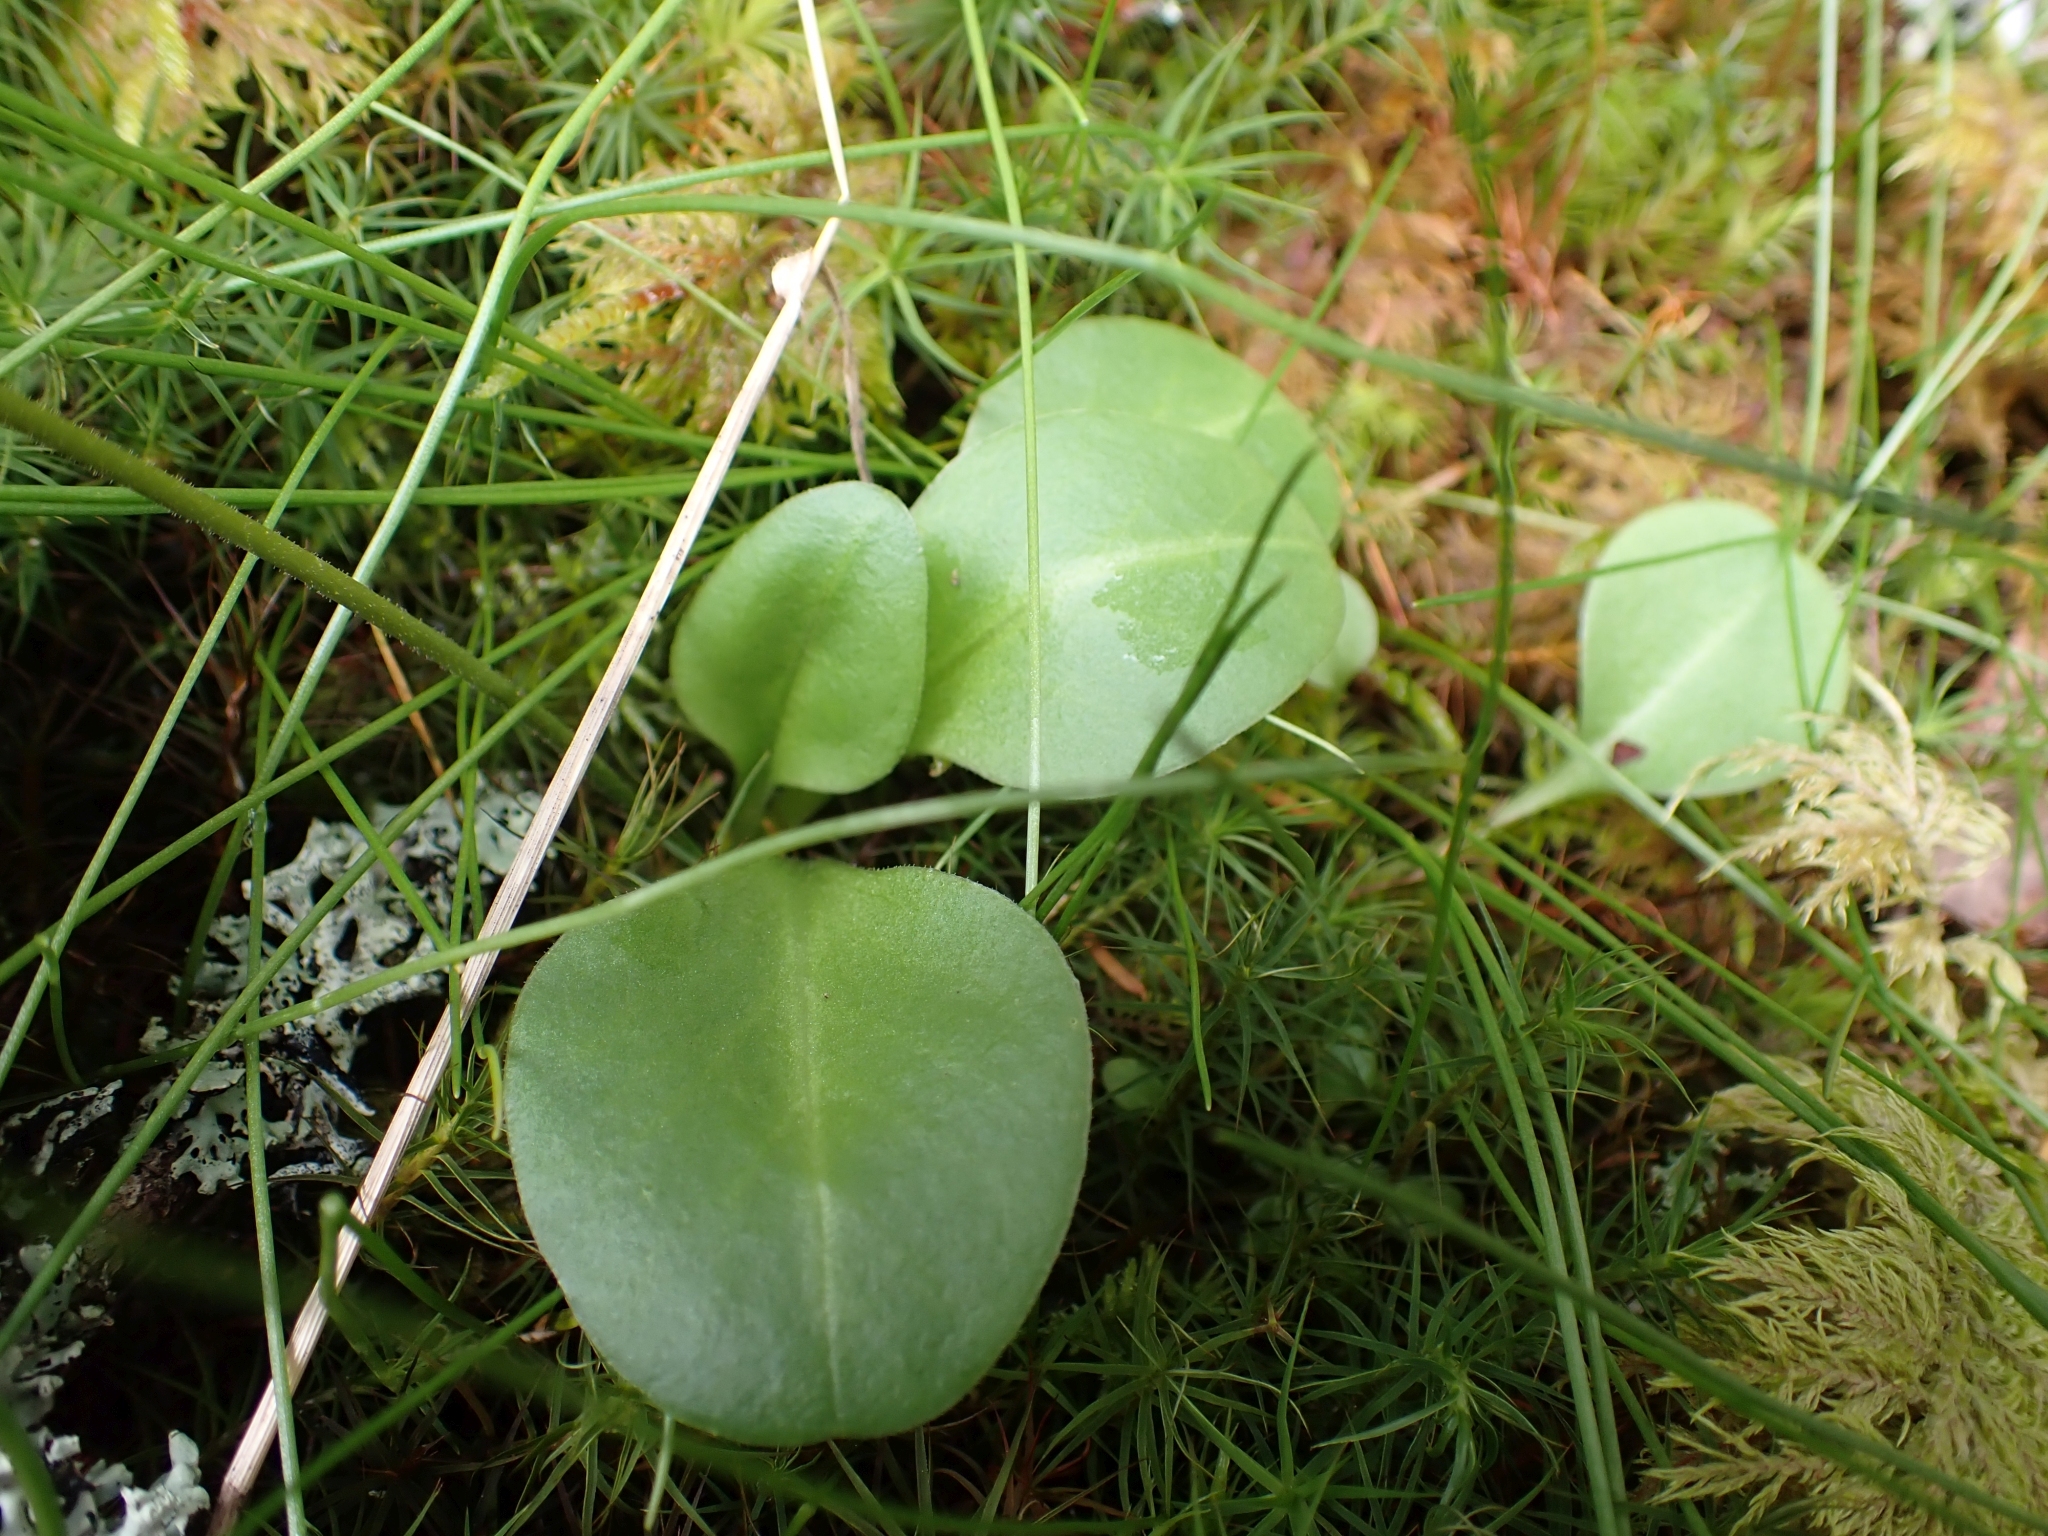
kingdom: Plantae
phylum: Tracheophyta
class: Magnoliopsida
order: Ericales
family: Primulaceae
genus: Dodecatheon
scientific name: Dodecatheon hendersonii
